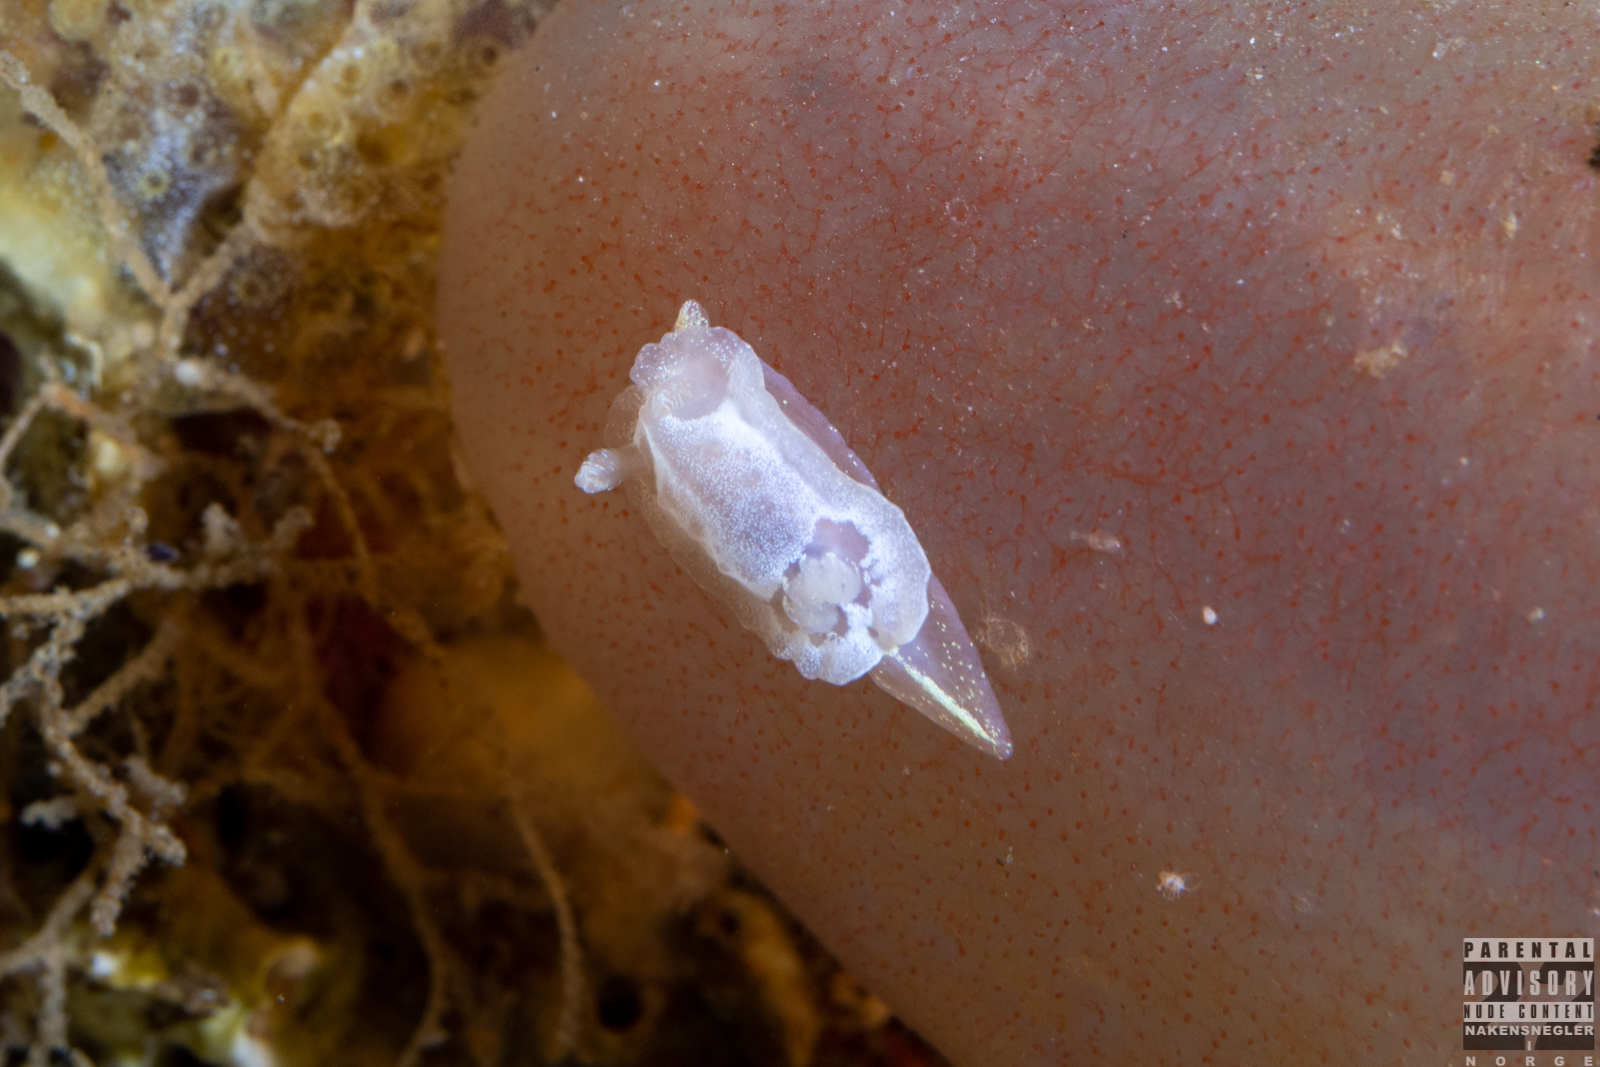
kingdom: Animalia
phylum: Mollusca
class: Gastropoda
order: Nudibranchia
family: Goniodorididae
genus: Okenia
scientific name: Okenia
